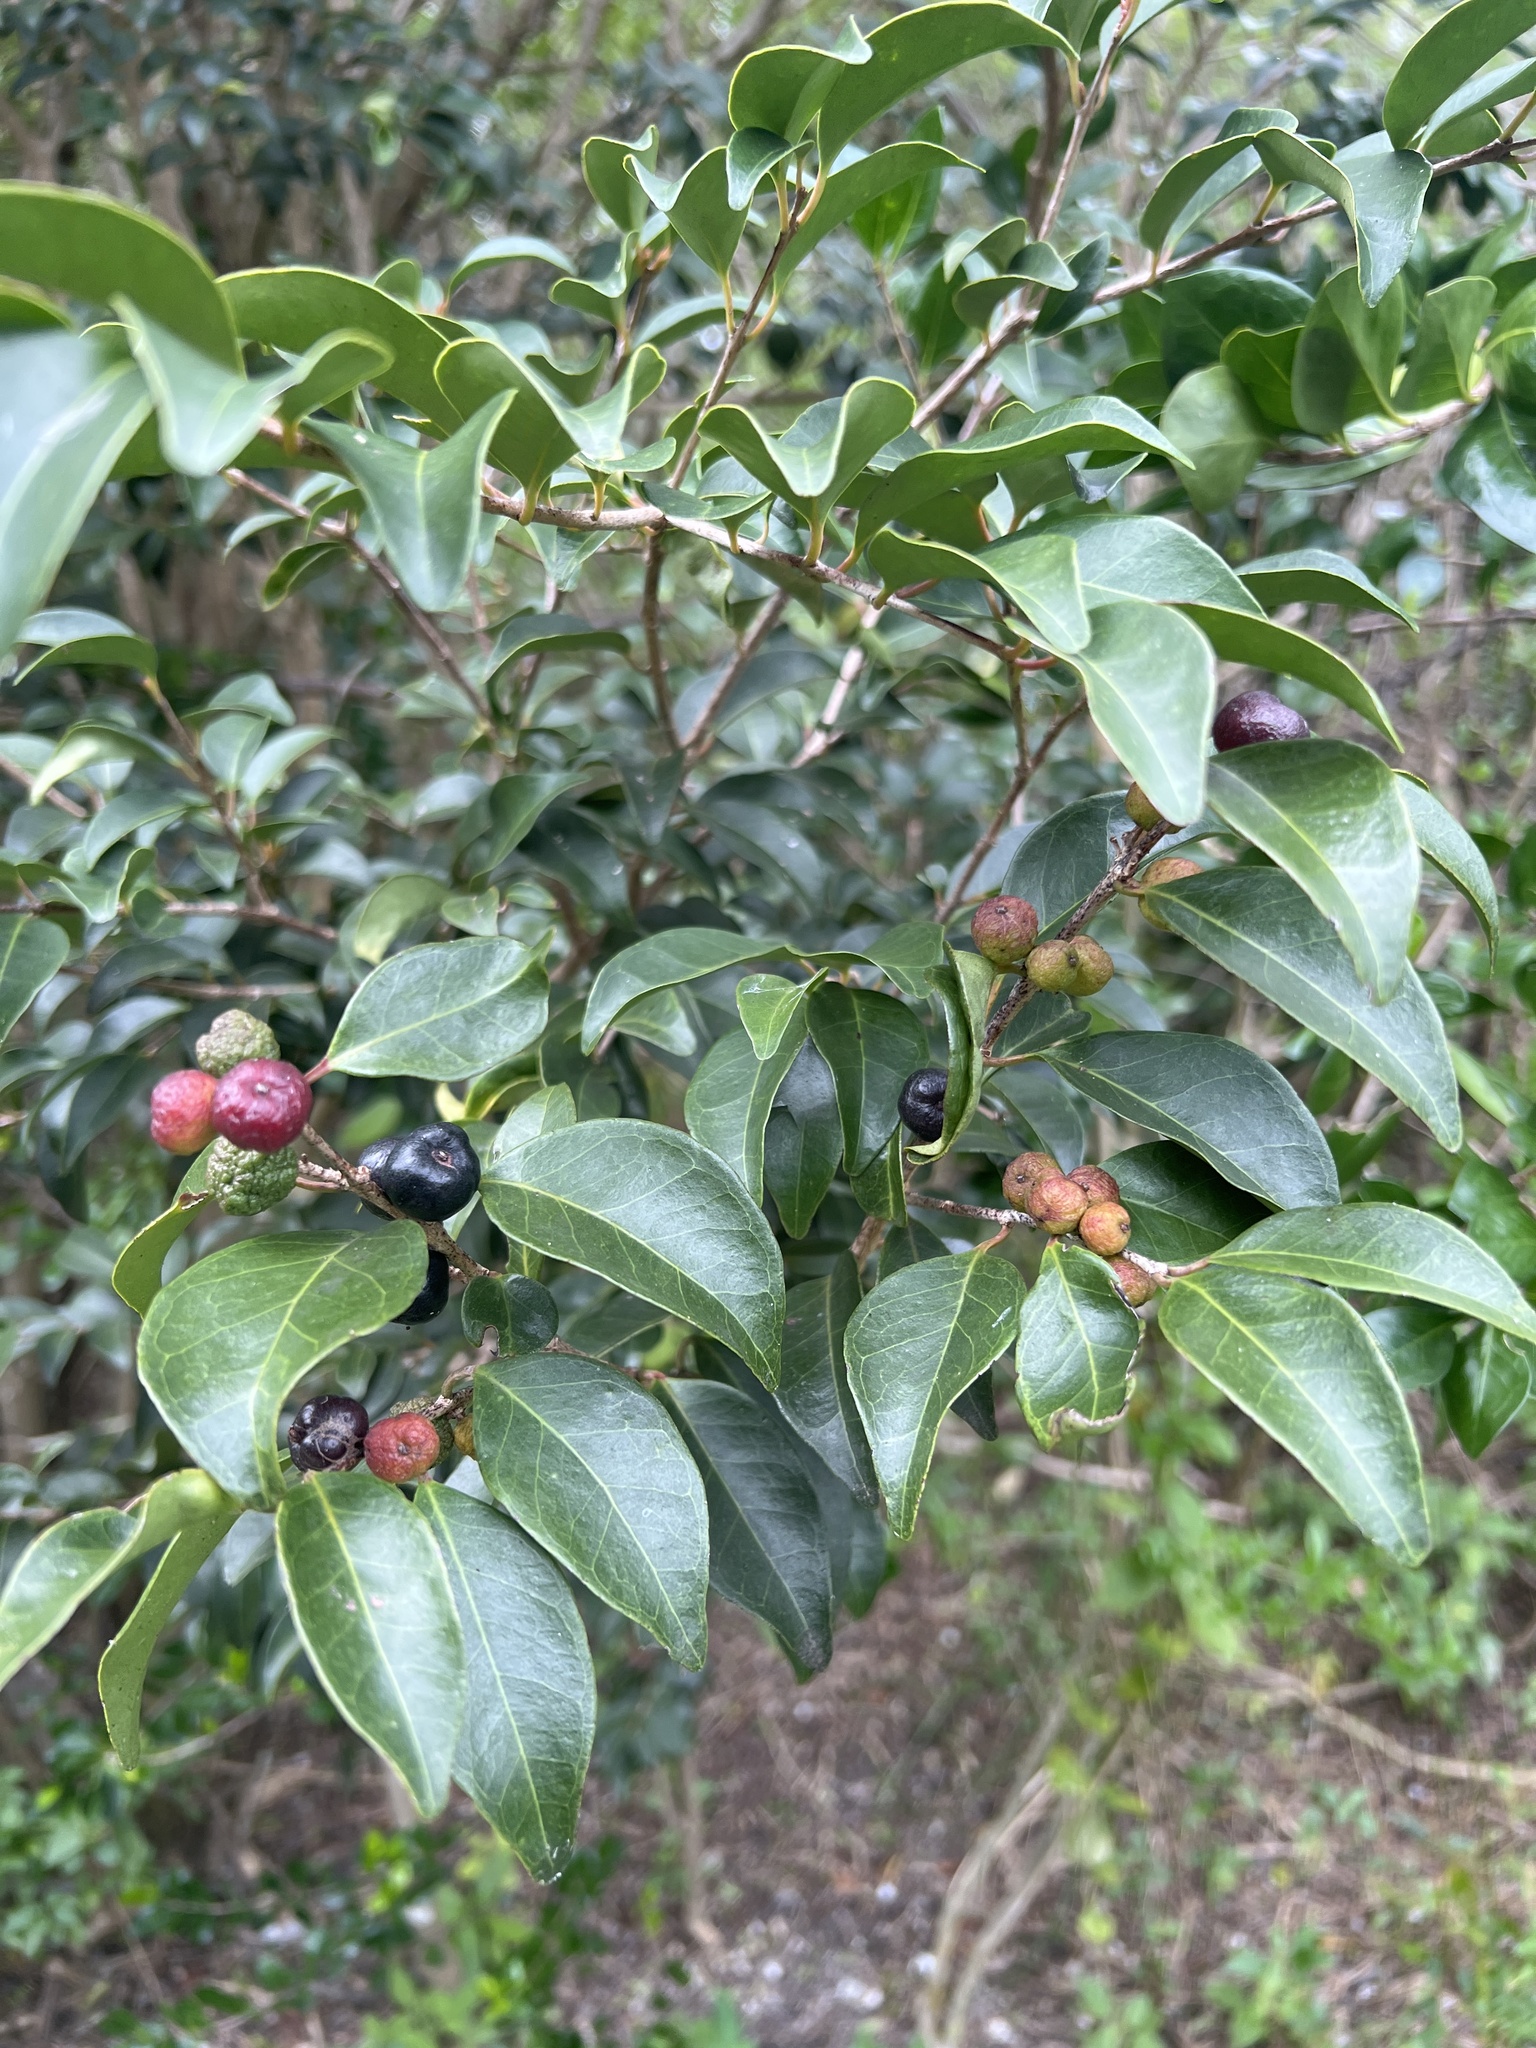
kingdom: Plantae
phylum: Tracheophyta
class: Magnoliopsida
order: Myrtales
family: Myrtaceae
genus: Eugenia
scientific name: Eugenia axillaris
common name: Choaky berry
